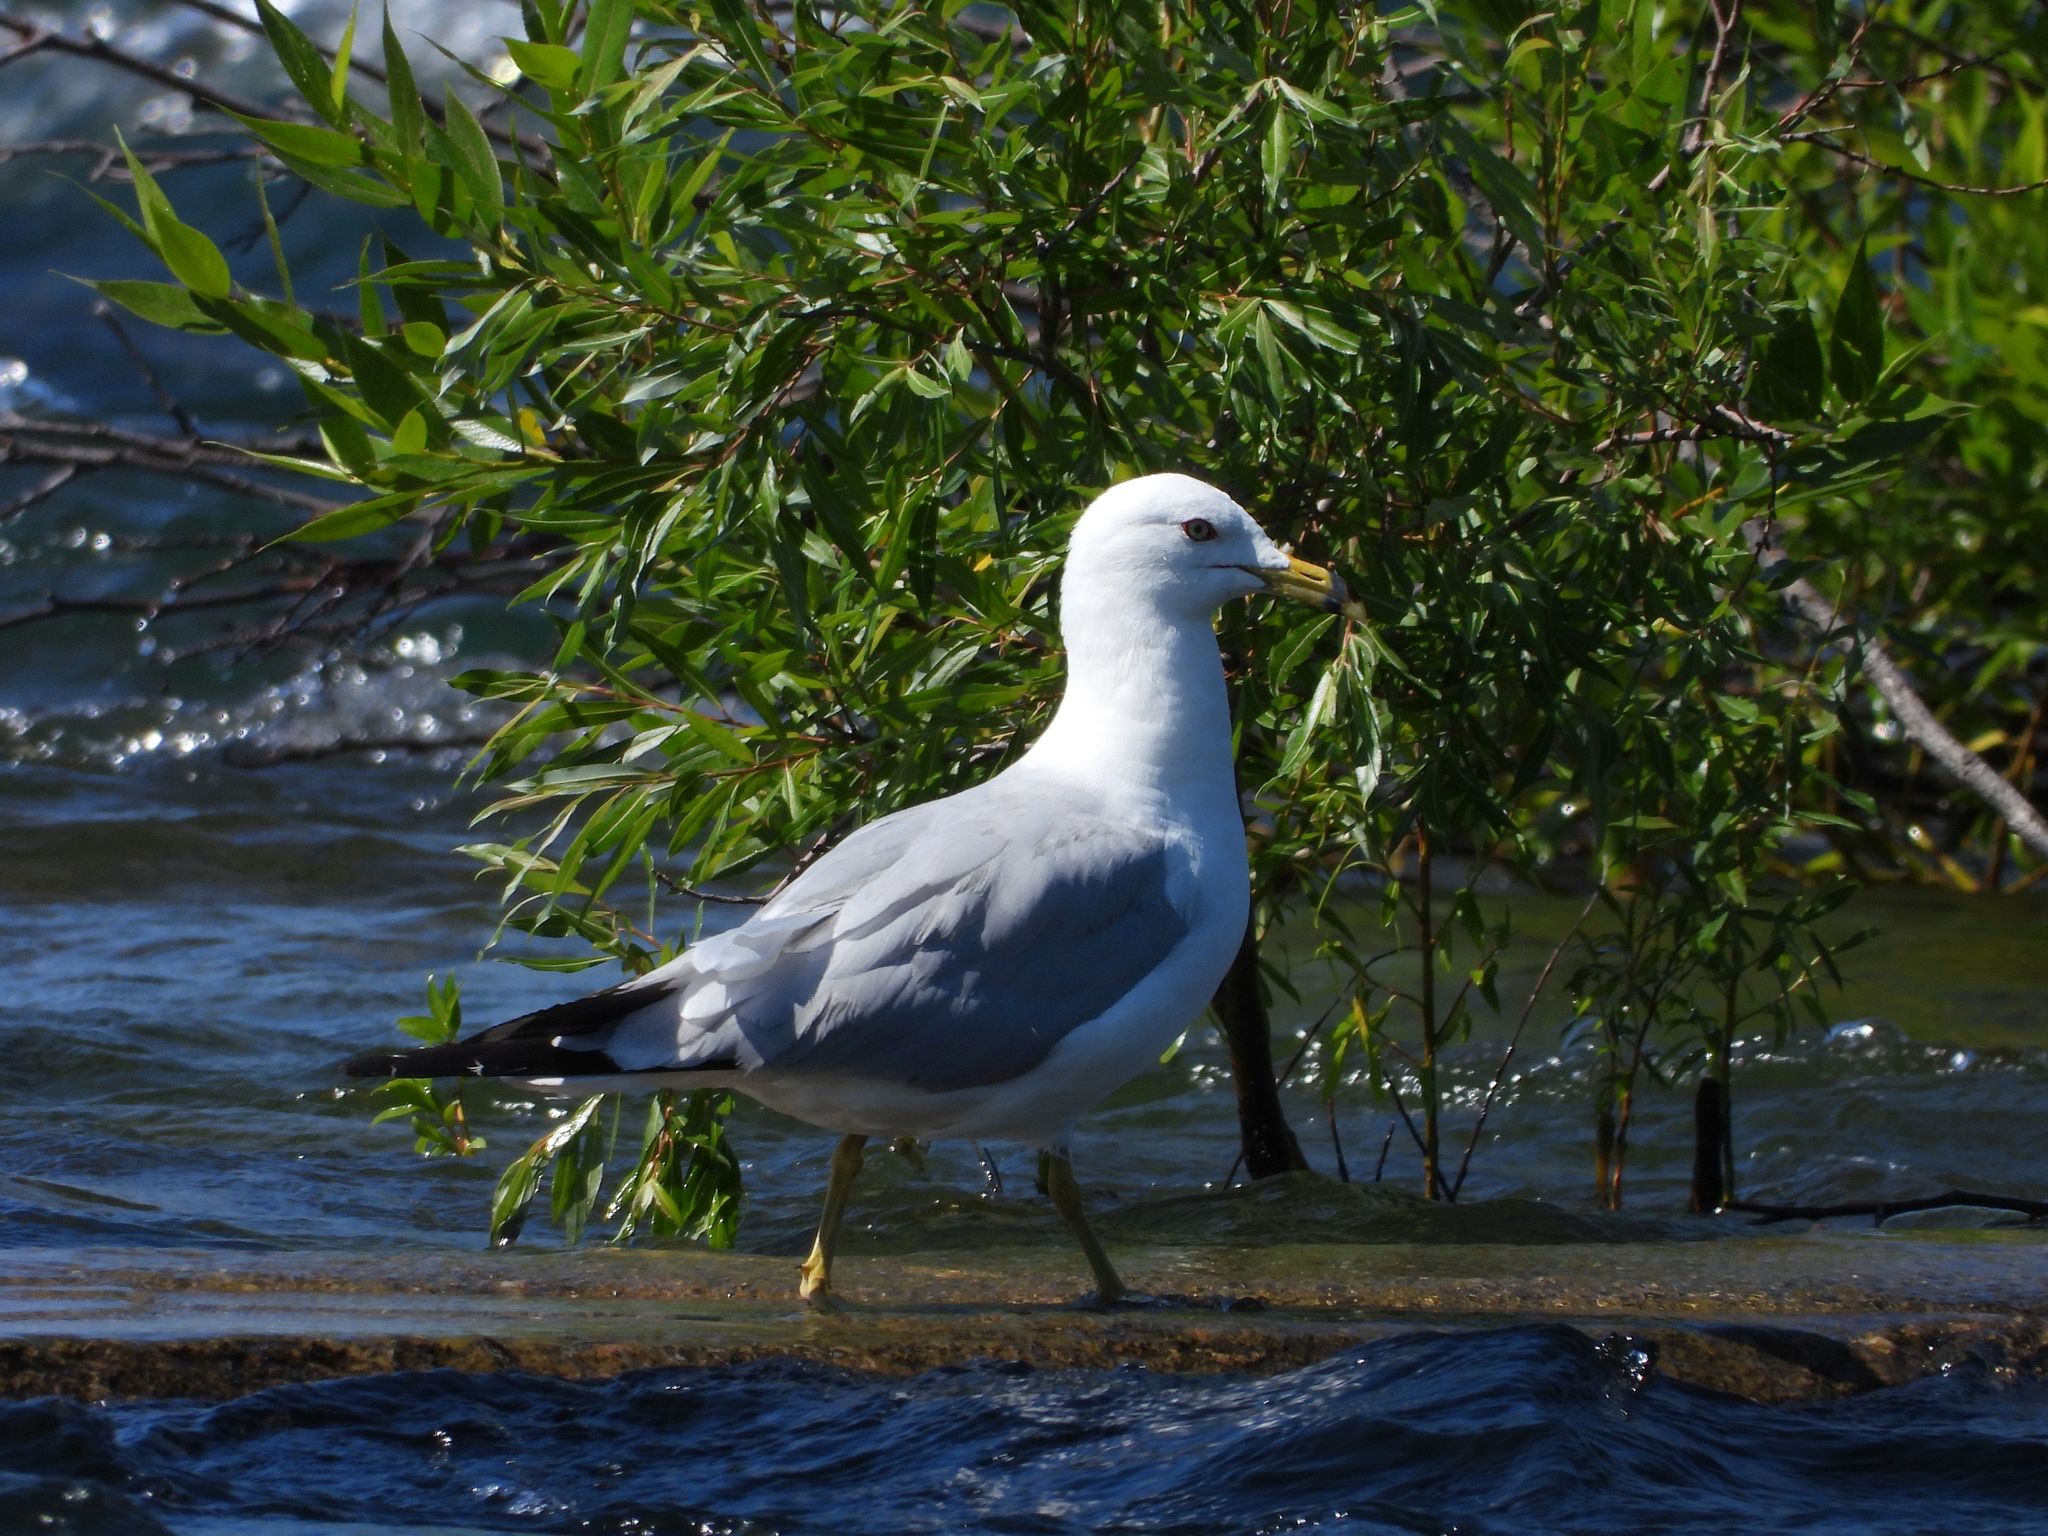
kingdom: Animalia
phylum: Chordata
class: Aves
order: Charadriiformes
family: Laridae
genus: Larus
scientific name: Larus delawarensis
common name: Ring-billed gull
